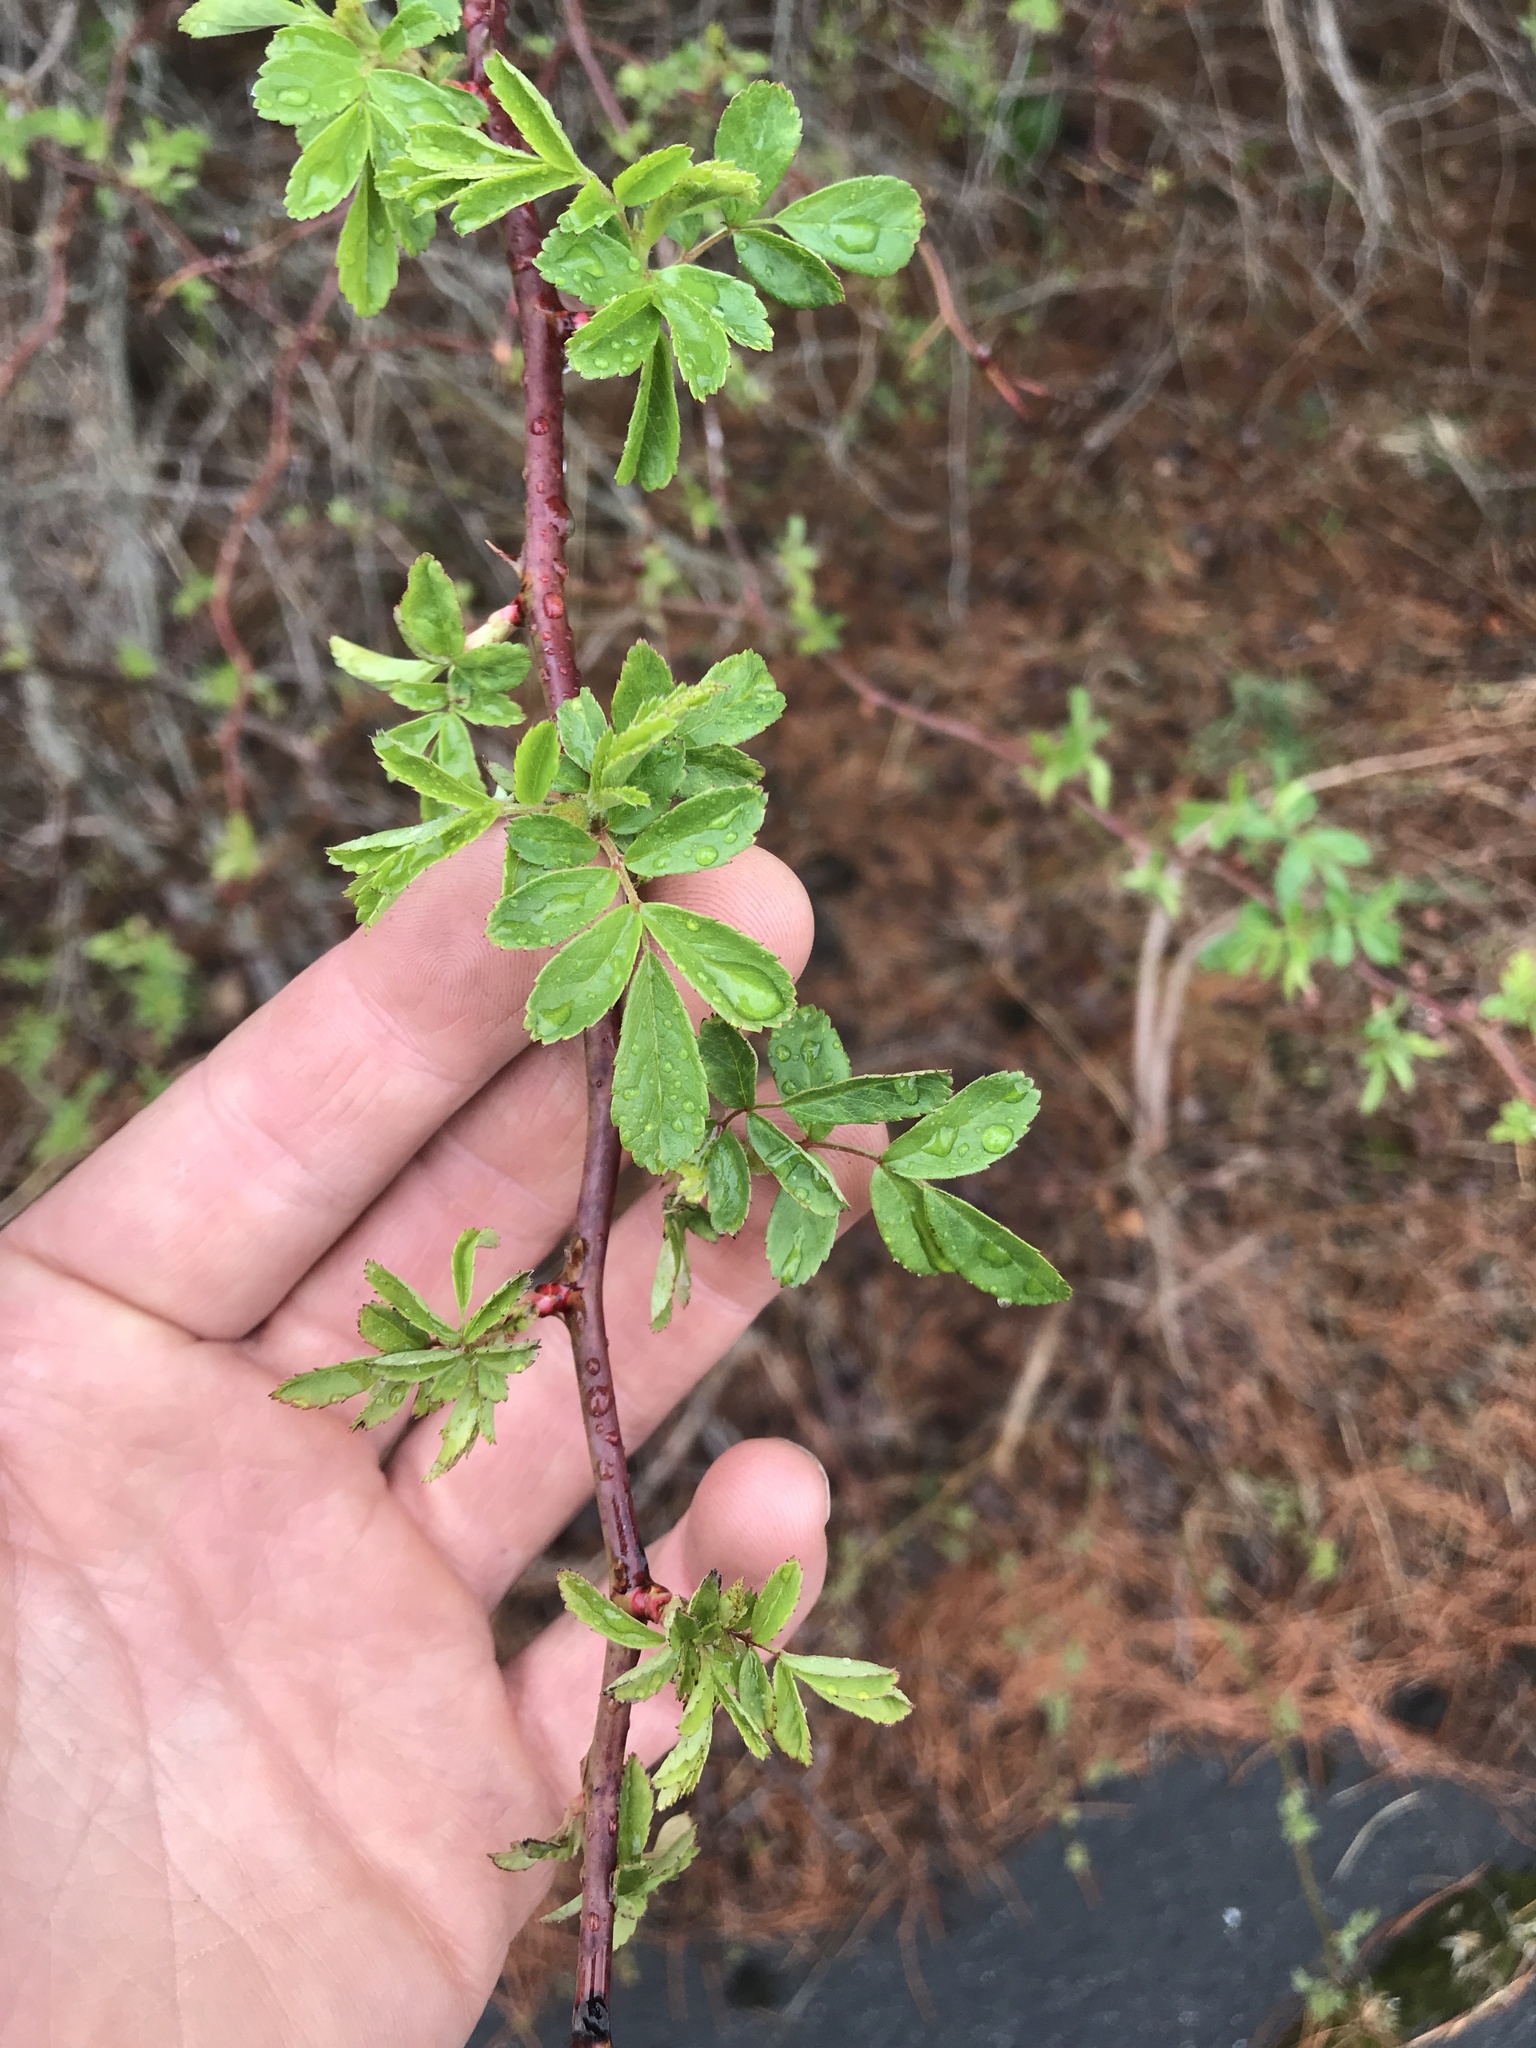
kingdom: Plantae
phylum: Tracheophyta
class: Magnoliopsida
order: Rosales
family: Rosaceae
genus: Rosa
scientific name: Rosa multiflora
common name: Multiflora rose
